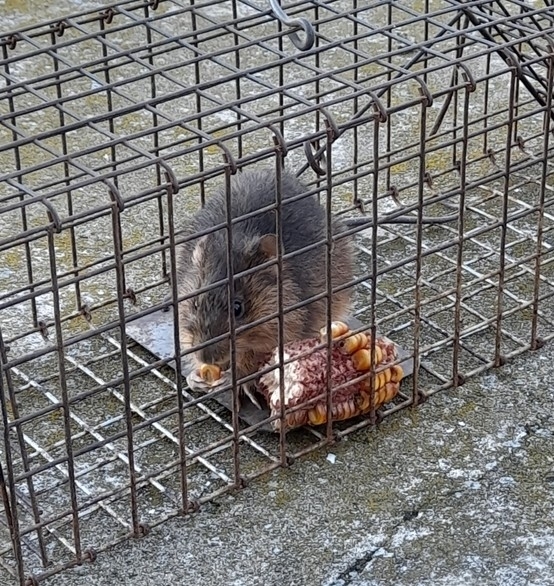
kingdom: Animalia
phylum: Chordata
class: Mammalia
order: Rodentia
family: Cricetidae
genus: Holochilus
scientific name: Holochilus brasiliensis
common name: Brazilian marsh rat
